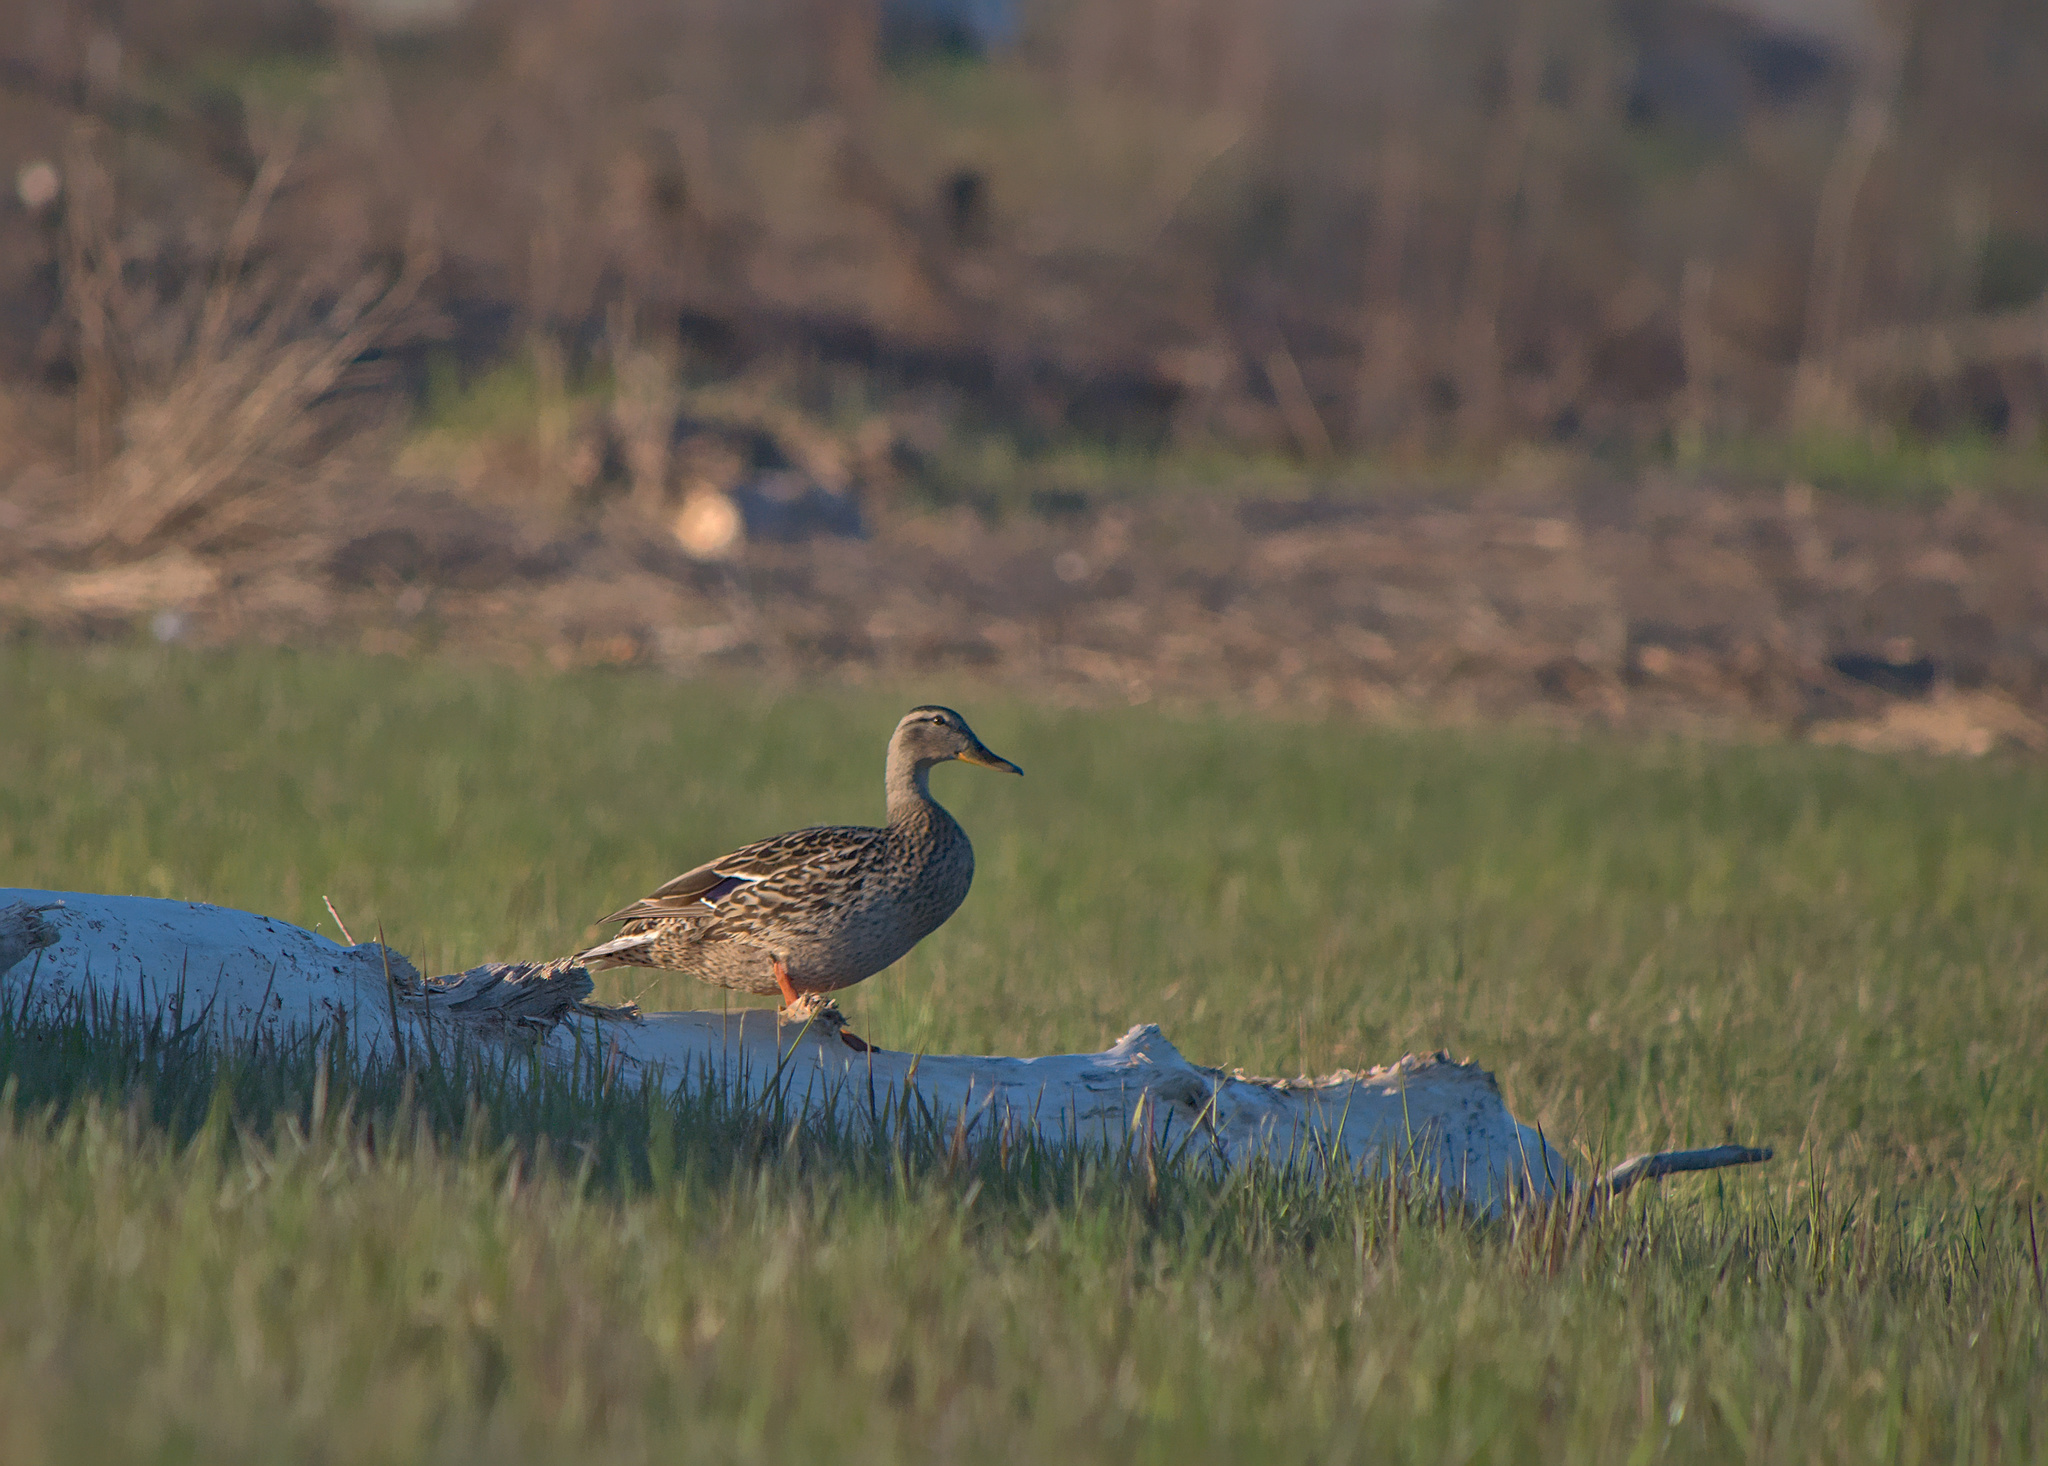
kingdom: Animalia
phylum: Chordata
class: Aves
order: Anseriformes
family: Anatidae
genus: Anas
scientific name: Anas platyrhynchos
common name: Mallard
